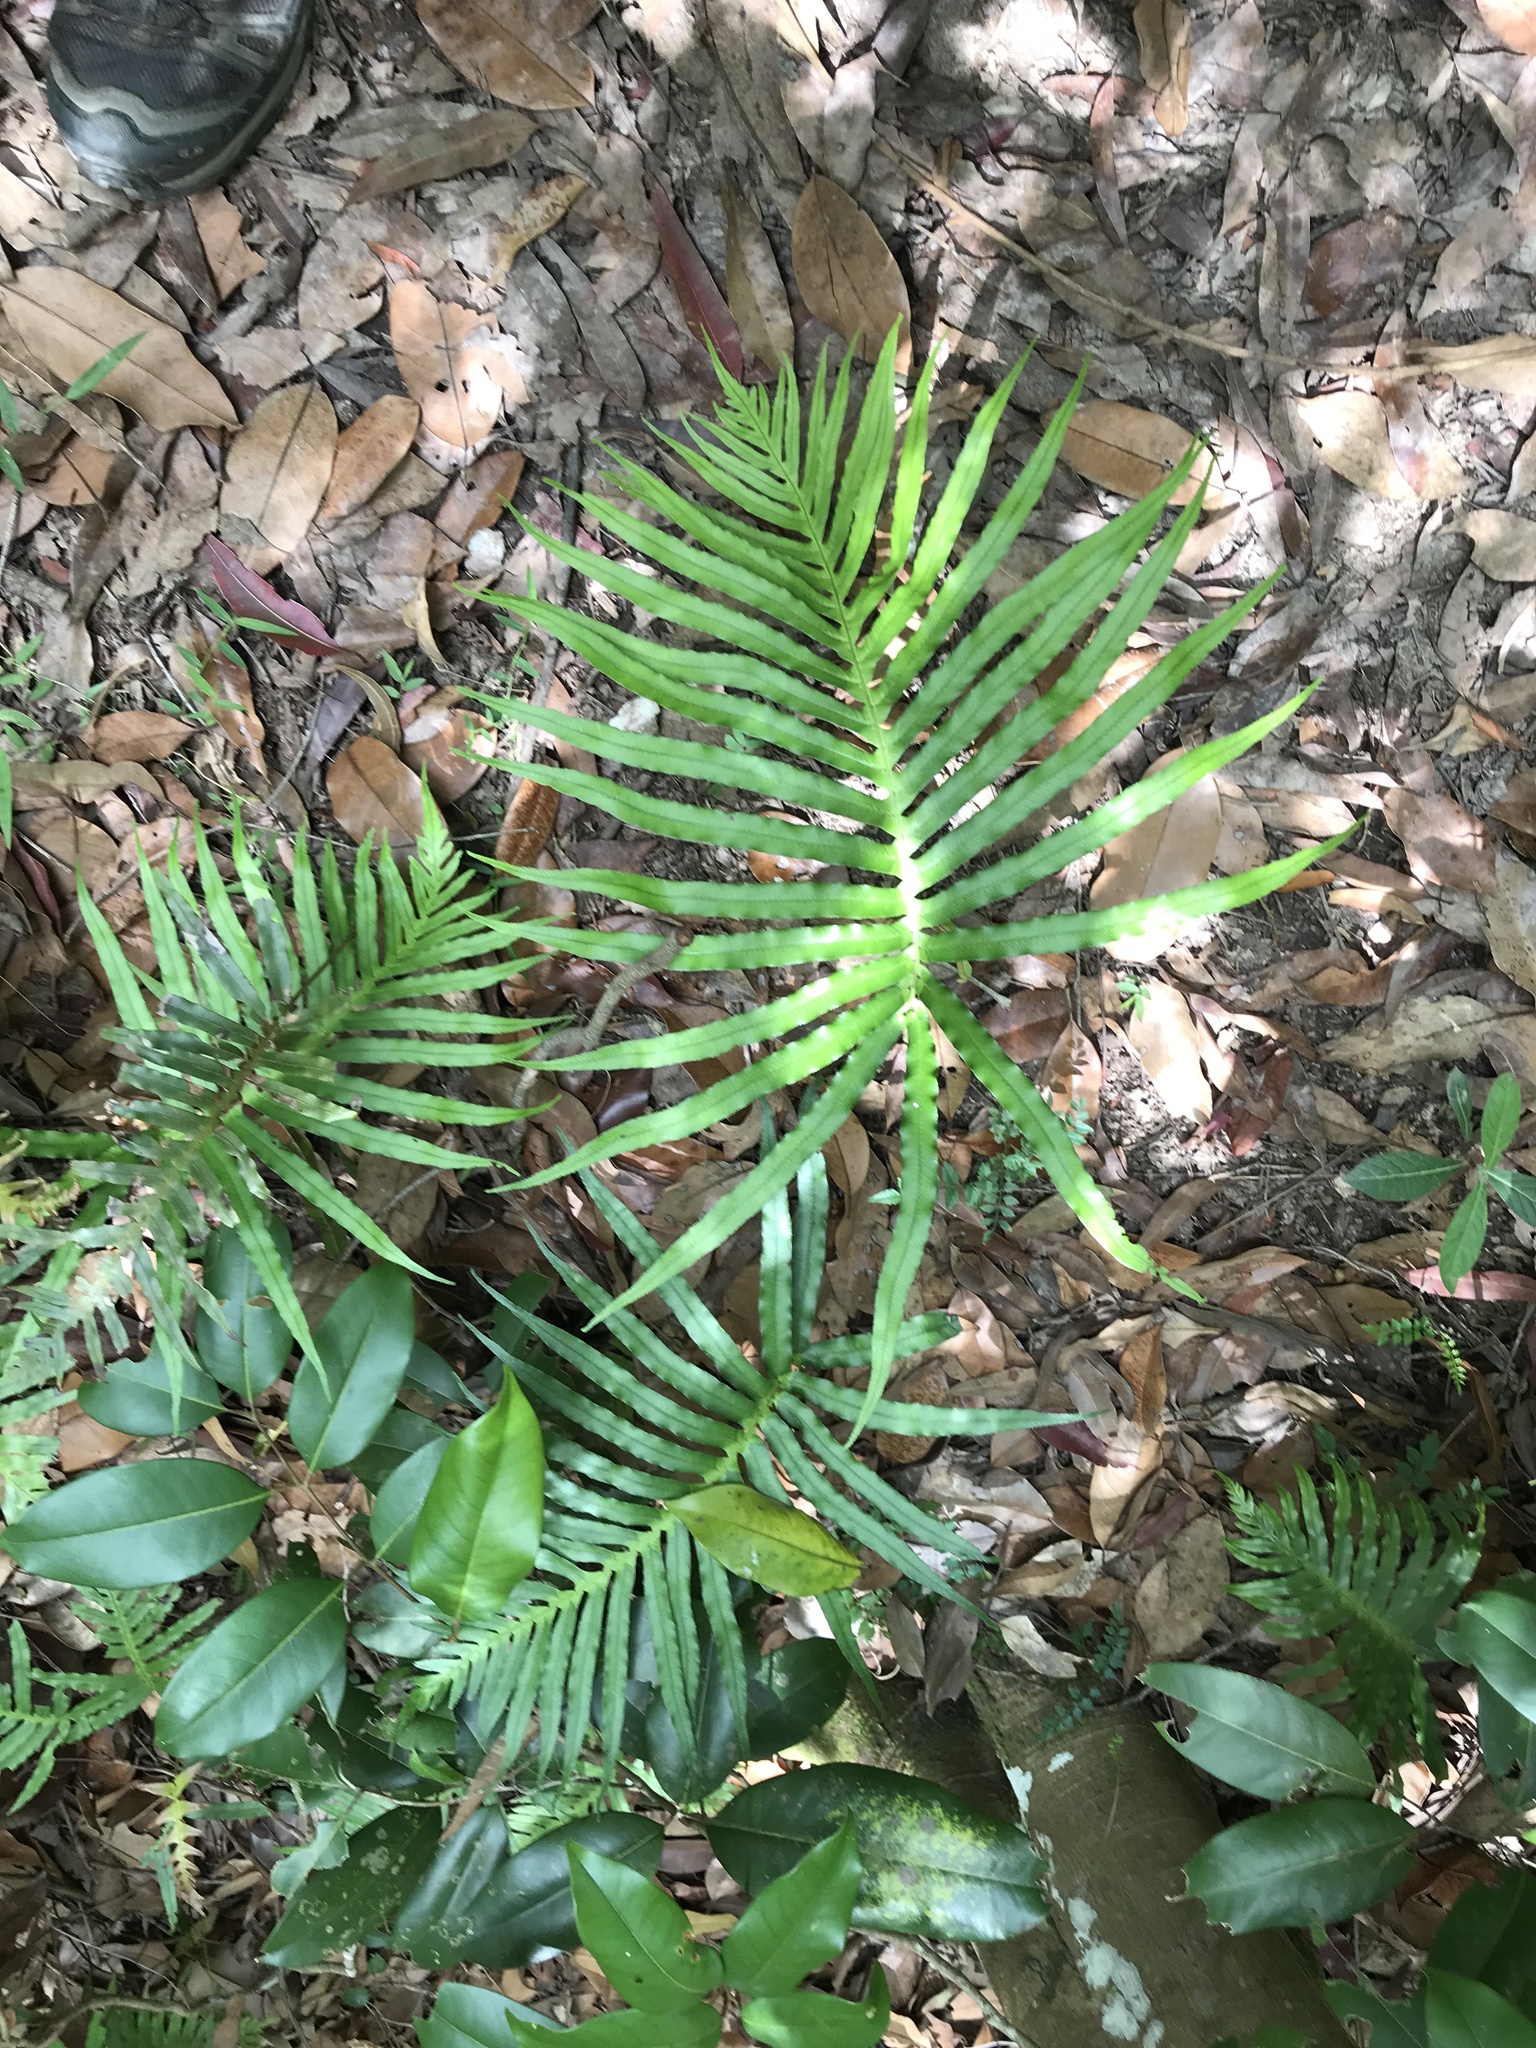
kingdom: Plantae
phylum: Tracheophyta
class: Polypodiopsida
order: Polypodiales
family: Blechnaceae
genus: Oceaniopteris
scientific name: Oceaniopteris cartilaginea
